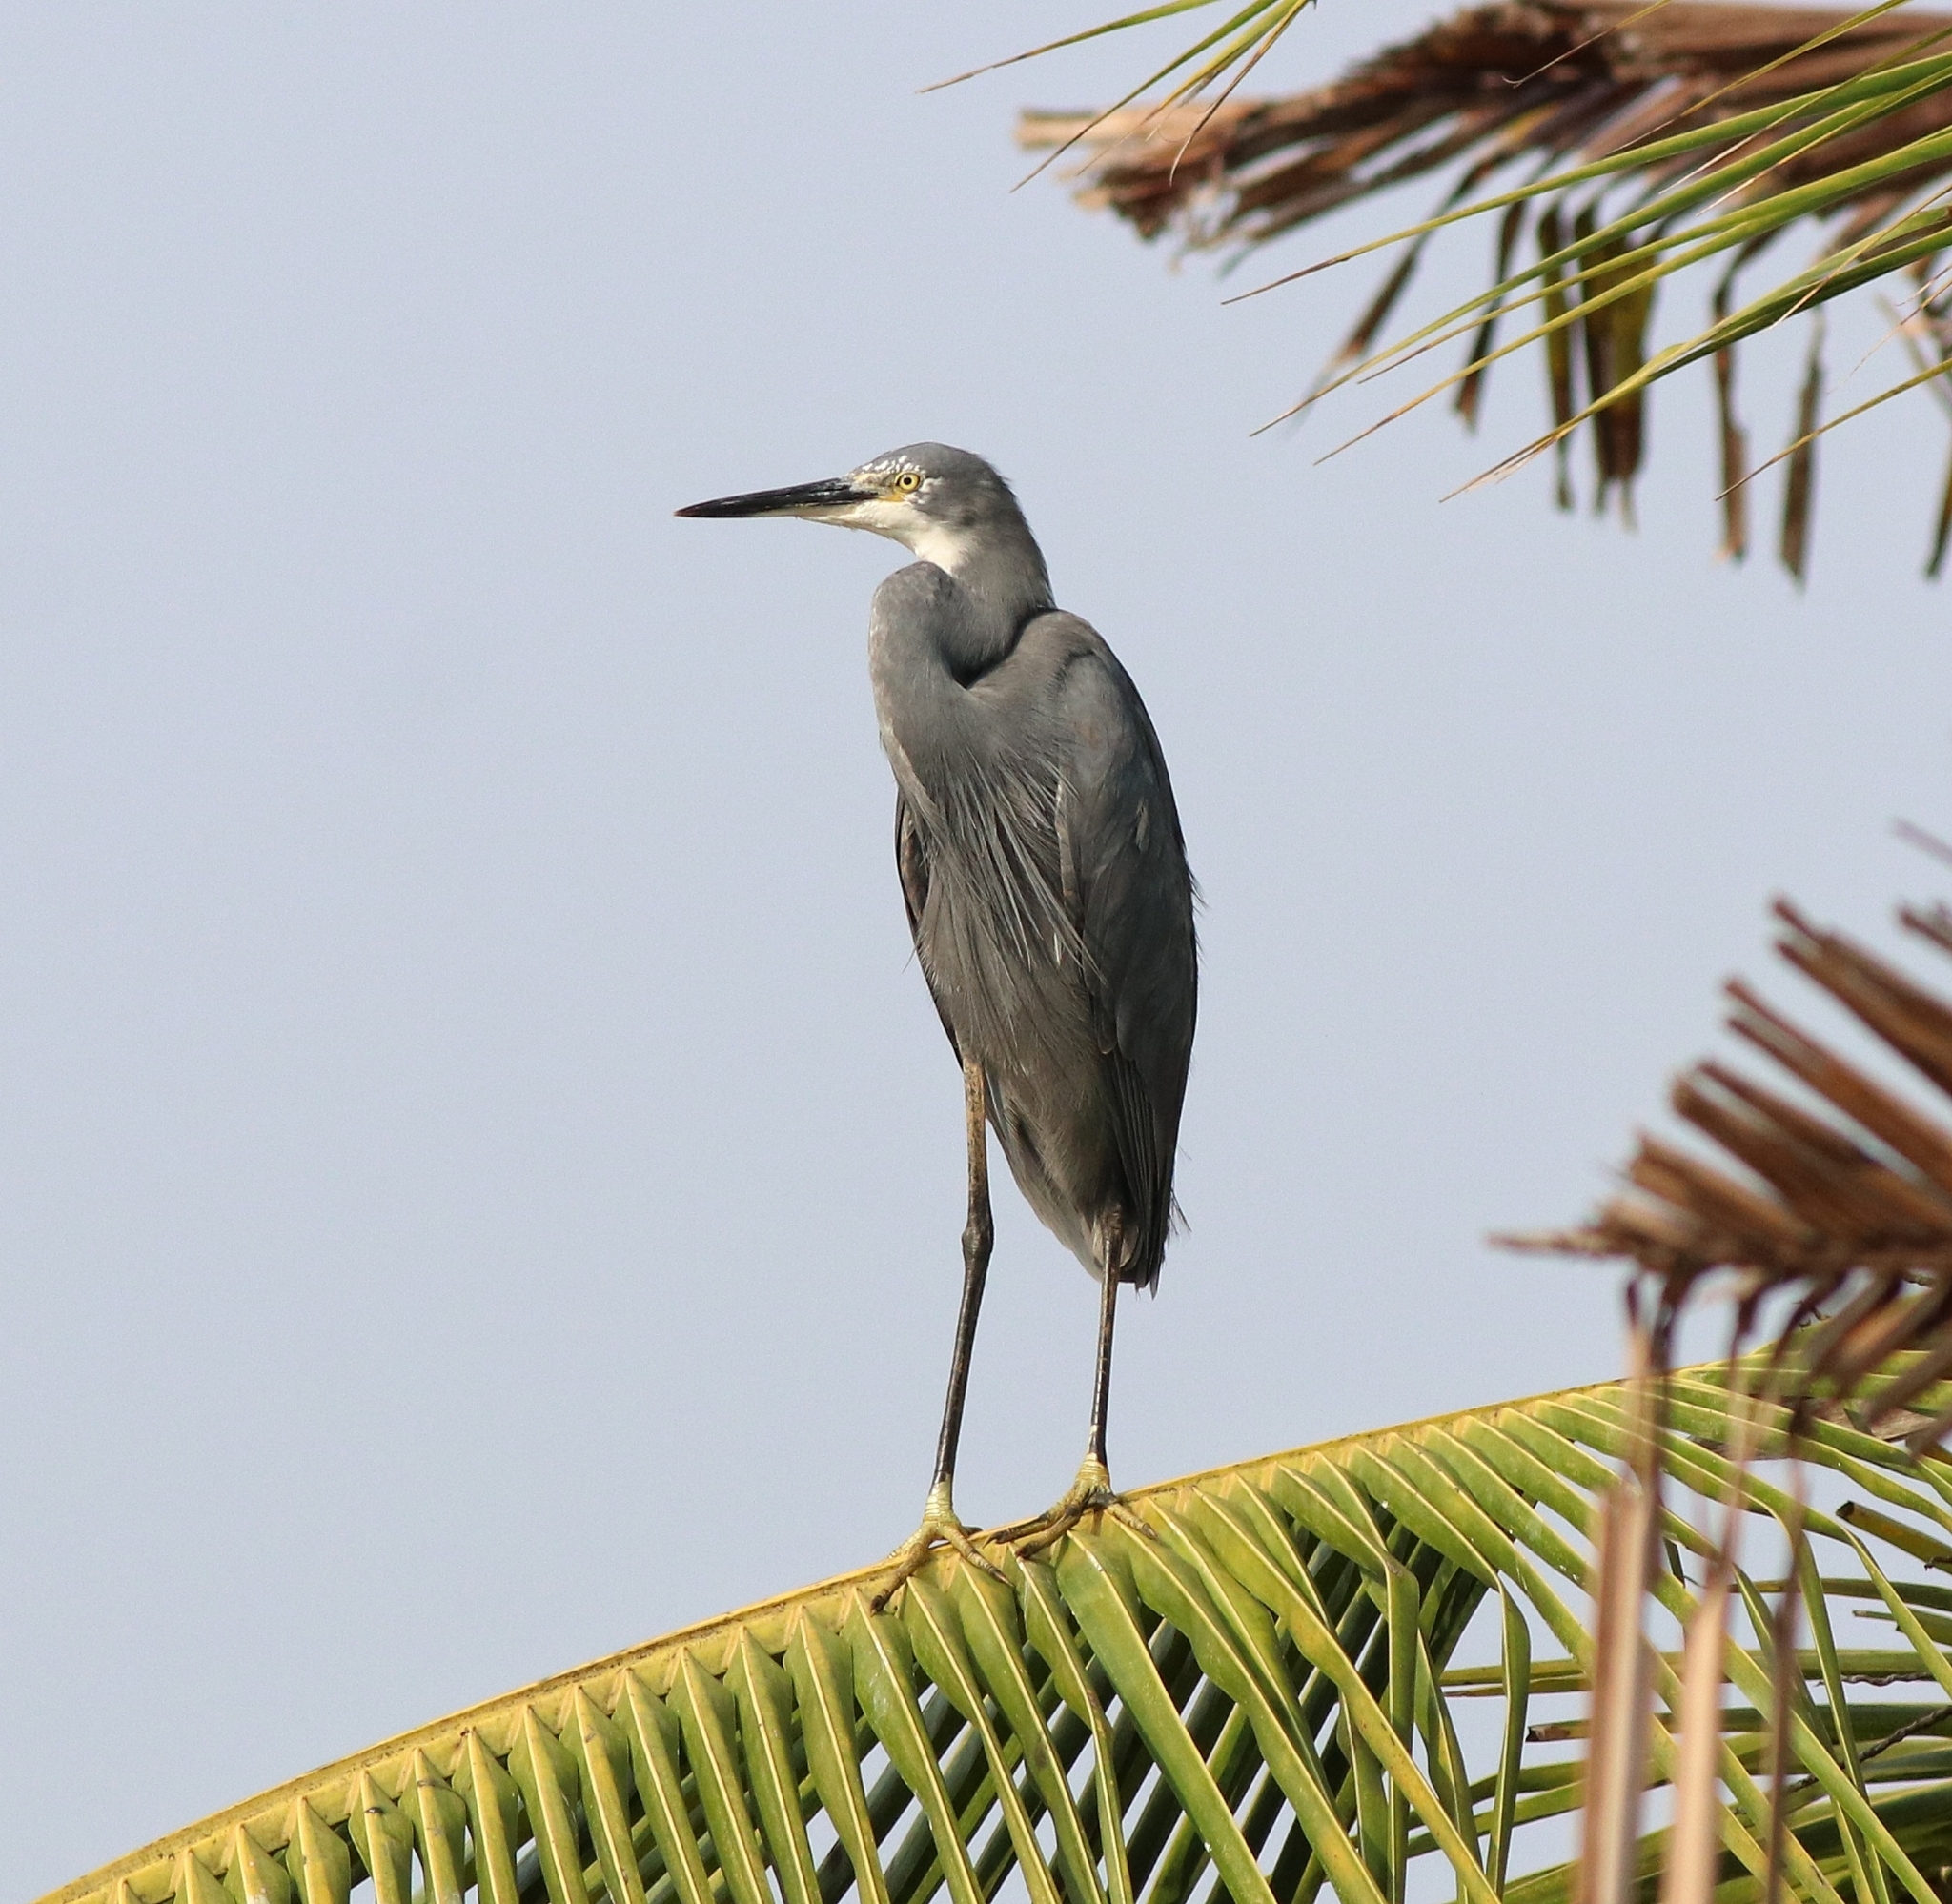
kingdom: Animalia
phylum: Chordata
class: Aves
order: Pelecaniformes
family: Ardeidae
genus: Egretta
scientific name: Egretta garzetta
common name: Little egret
